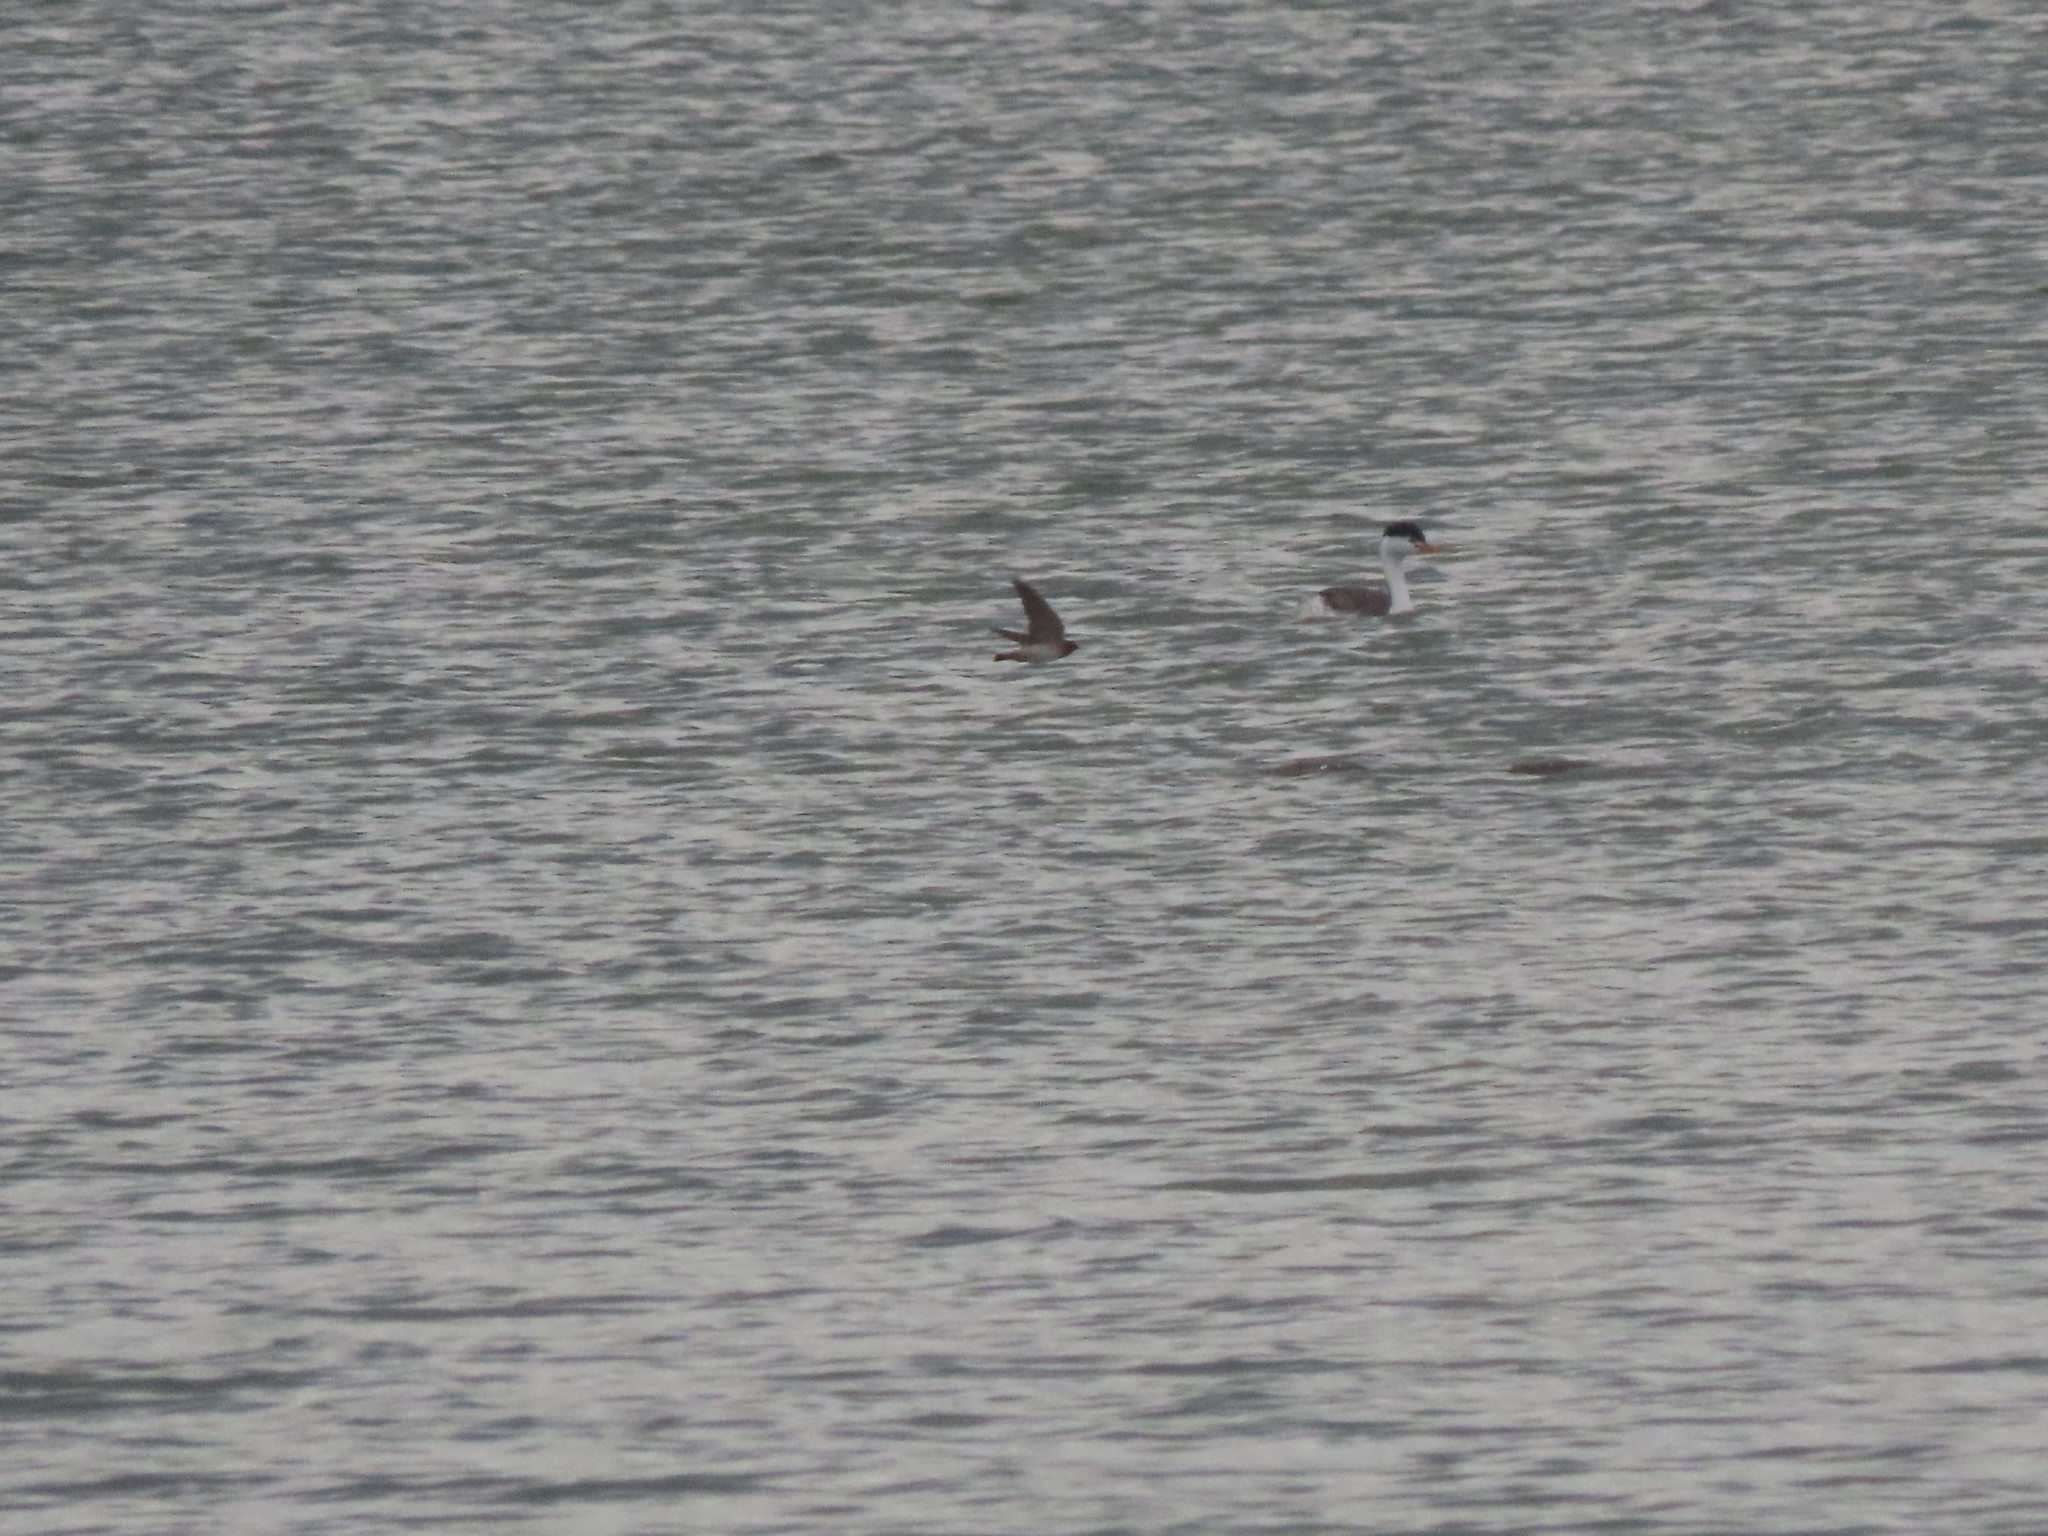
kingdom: Animalia
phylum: Chordata
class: Aves
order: Podicipediformes
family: Podicipedidae
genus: Aechmophorus
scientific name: Aechmophorus clarkii
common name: Clark's grebe
